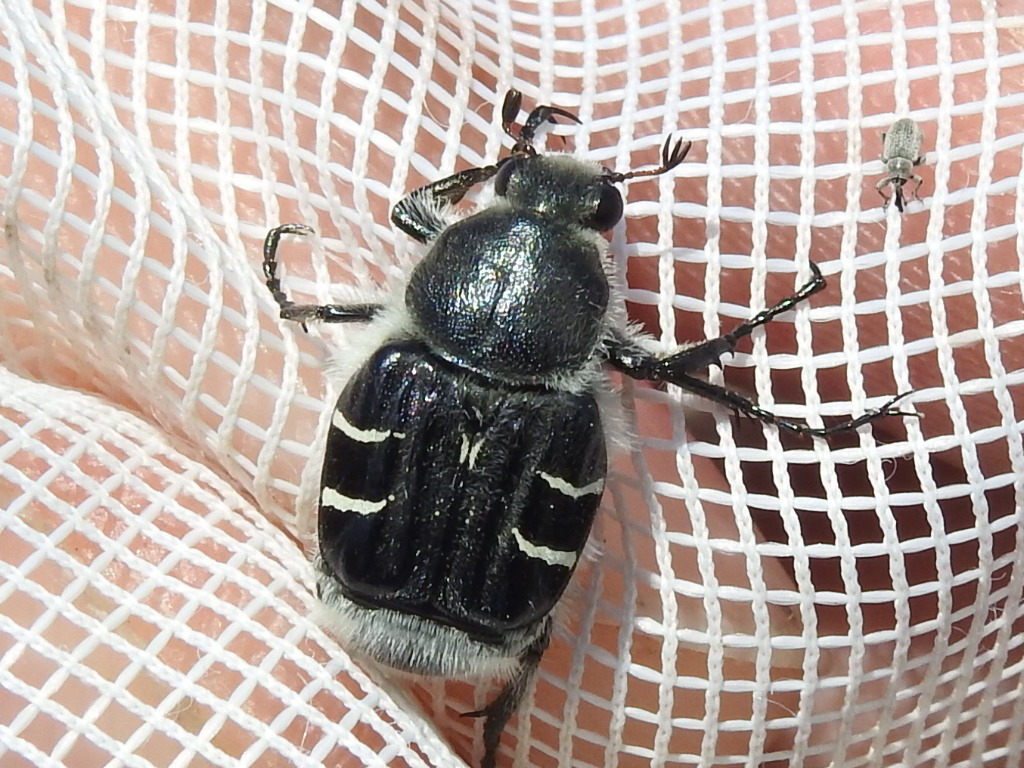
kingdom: Animalia
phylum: Arthropoda
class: Insecta
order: Coleoptera
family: Scarabaeidae
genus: Trichiotinus
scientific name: Trichiotinus texanus
